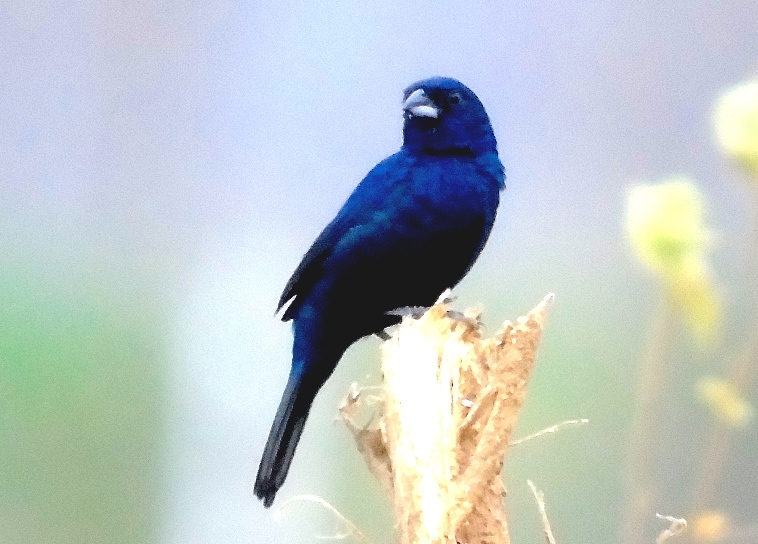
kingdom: Animalia
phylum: Chordata
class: Aves
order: Passeriformes
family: Thraupidae
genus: Volatinia
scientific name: Volatinia jacarina
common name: Blue-black grassquit
